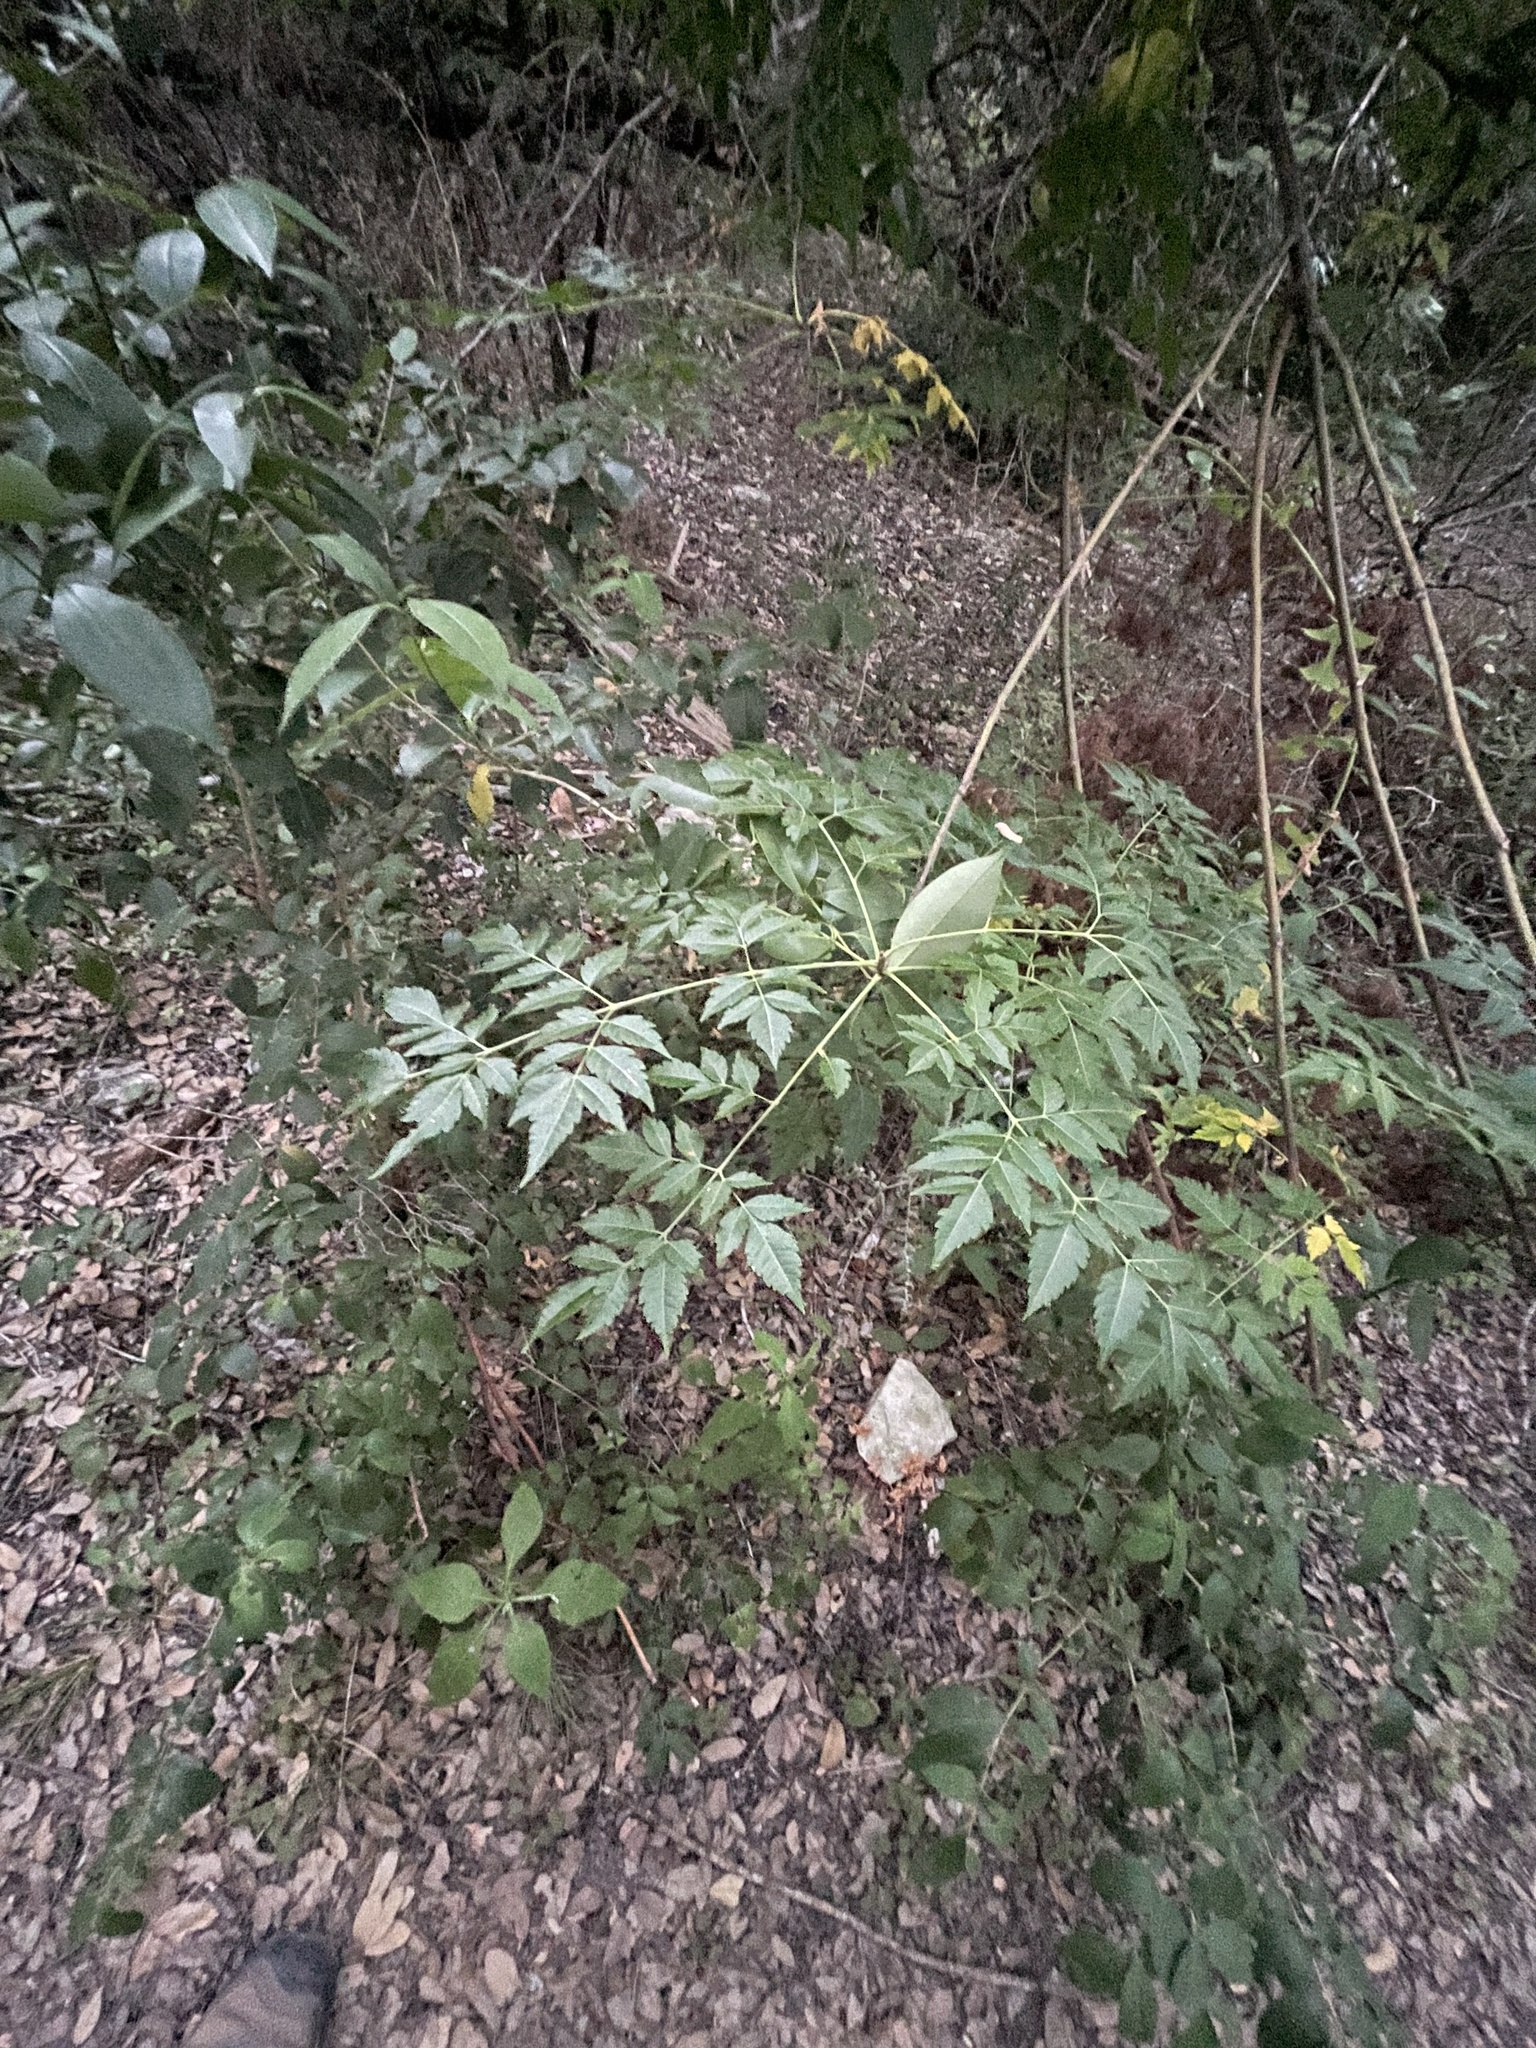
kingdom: Plantae
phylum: Tracheophyta
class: Magnoliopsida
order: Sapindales
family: Meliaceae
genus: Melia
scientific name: Melia azedarach
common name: Chinaberrytree
